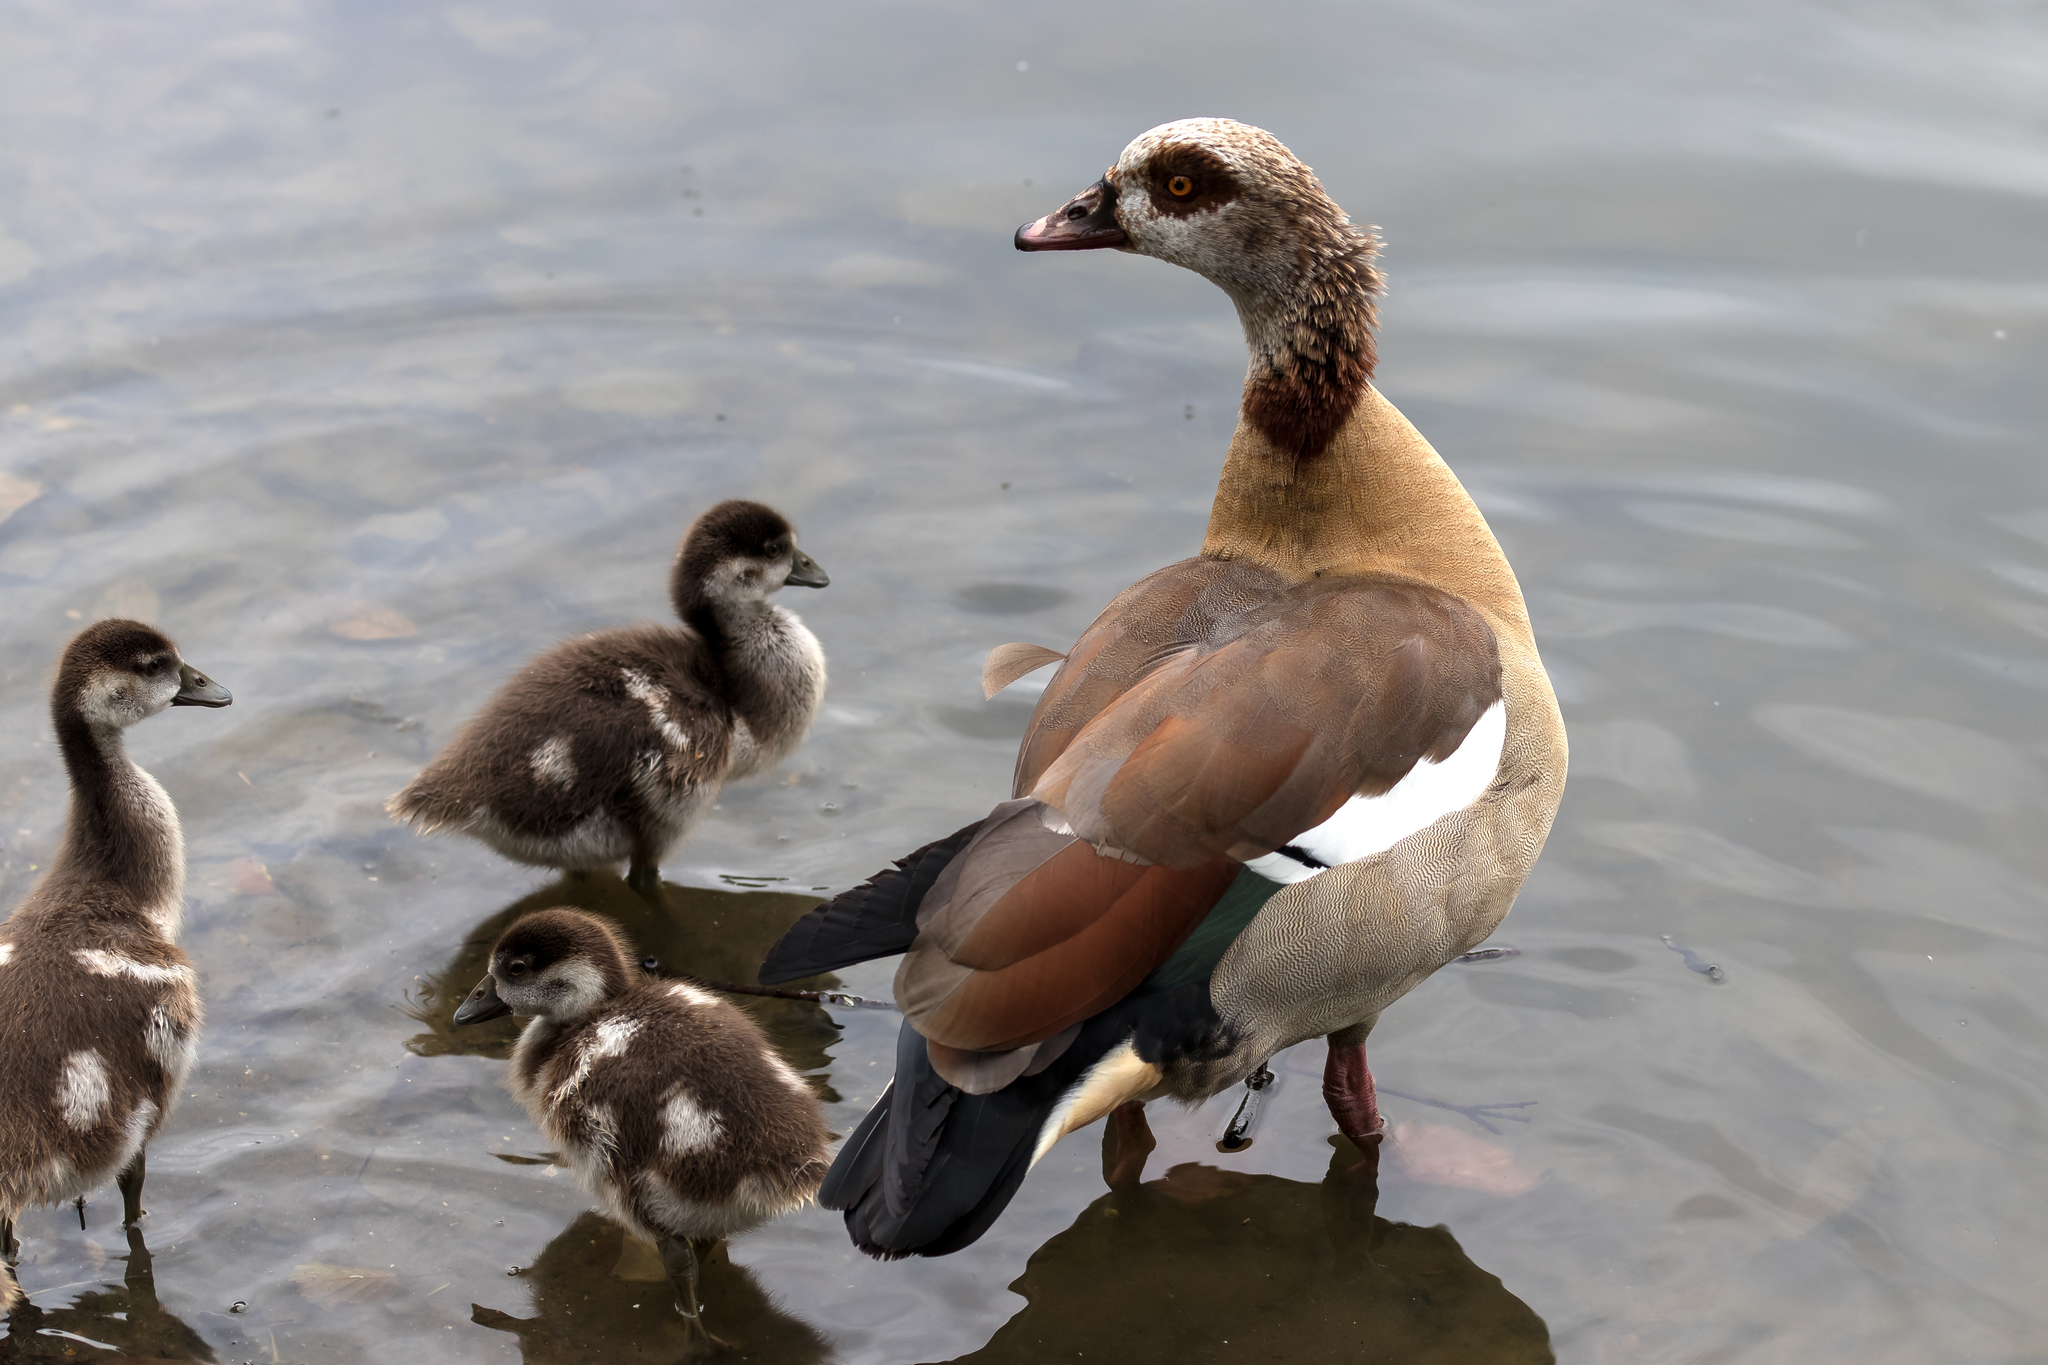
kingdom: Animalia
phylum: Chordata
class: Aves
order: Anseriformes
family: Anatidae
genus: Alopochen
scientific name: Alopochen aegyptiaca
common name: Egyptian goose
